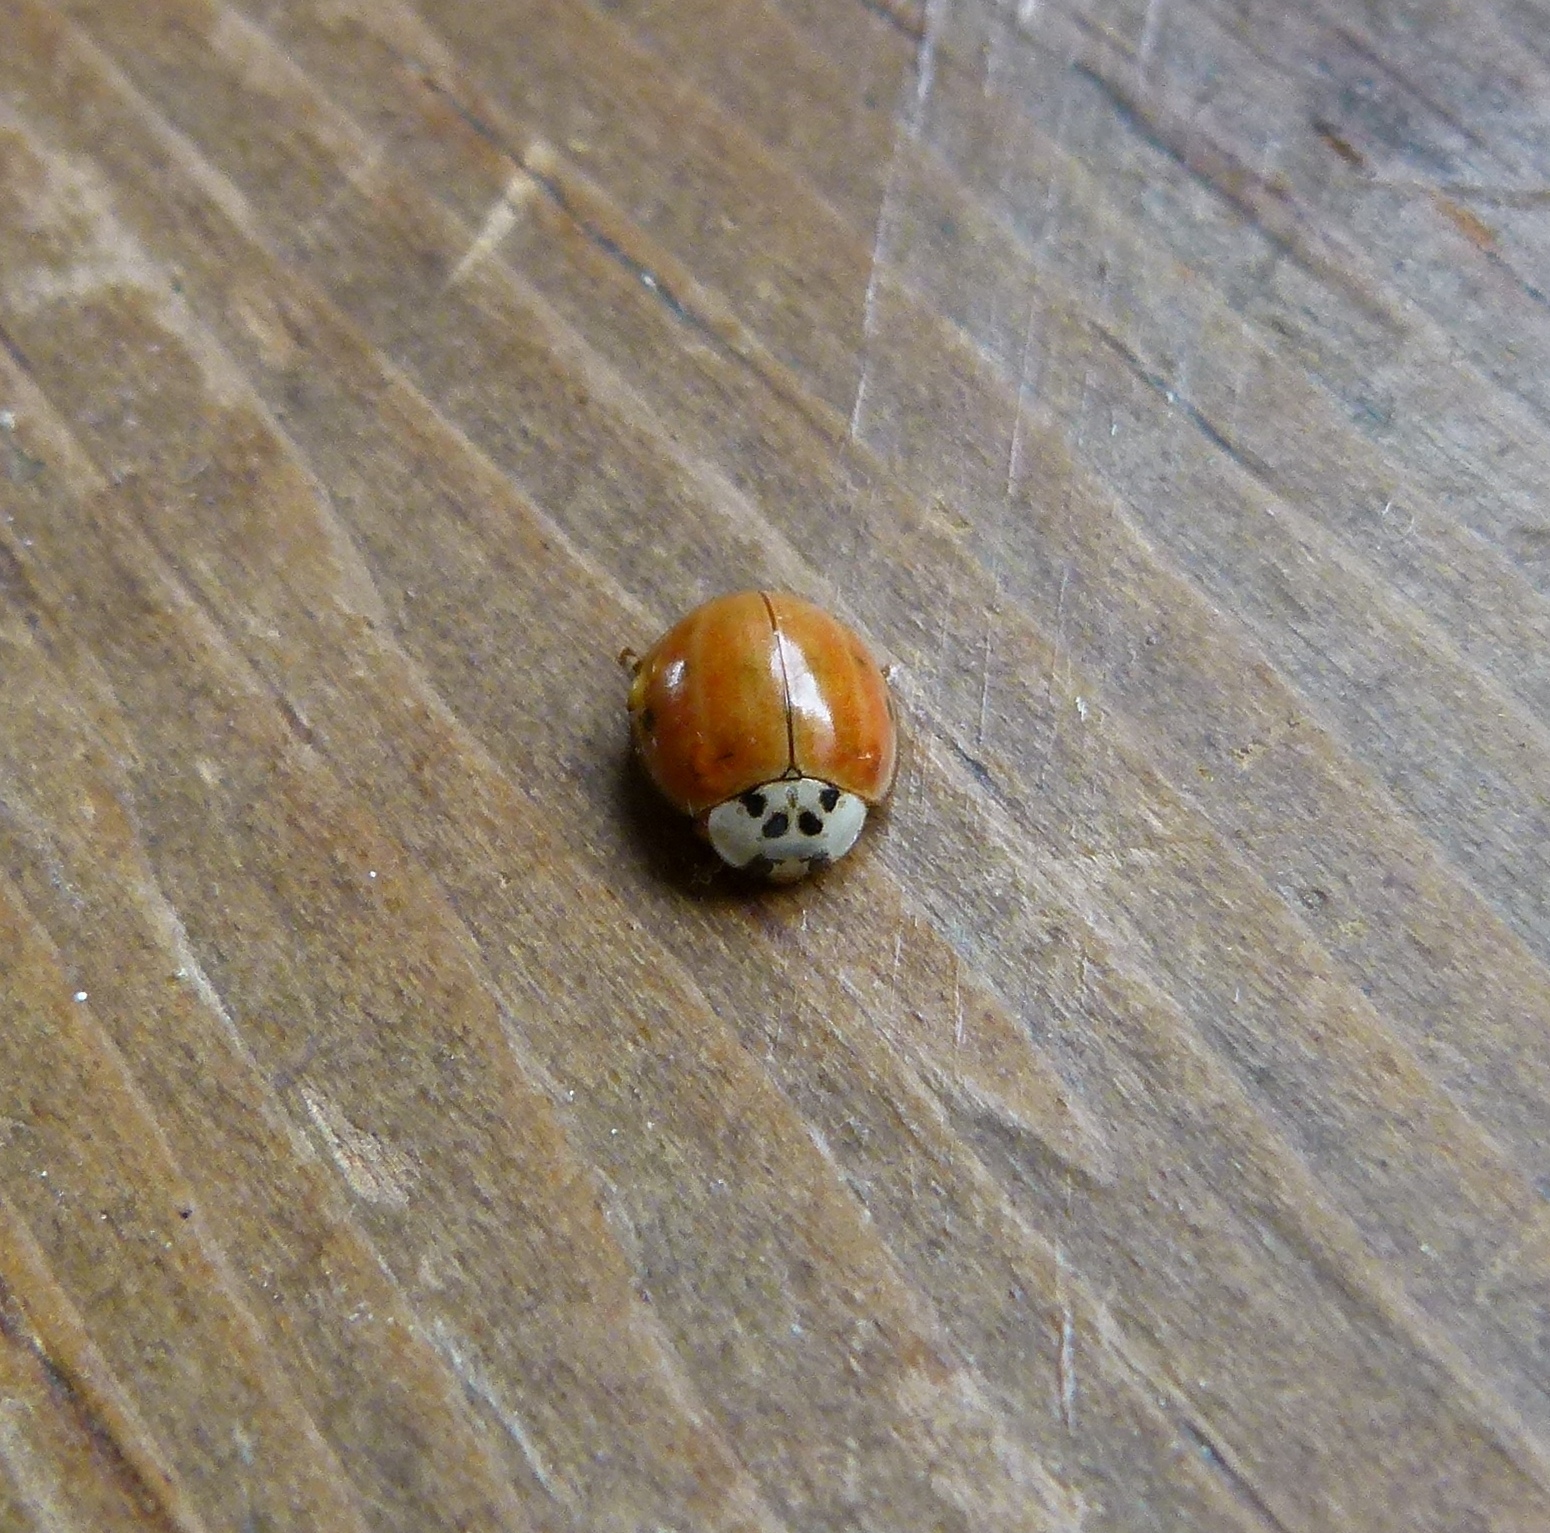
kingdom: Animalia
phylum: Arthropoda
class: Insecta
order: Coleoptera
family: Coccinellidae
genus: Harmonia
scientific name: Harmonia axyridis
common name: Harlequin ladybird
